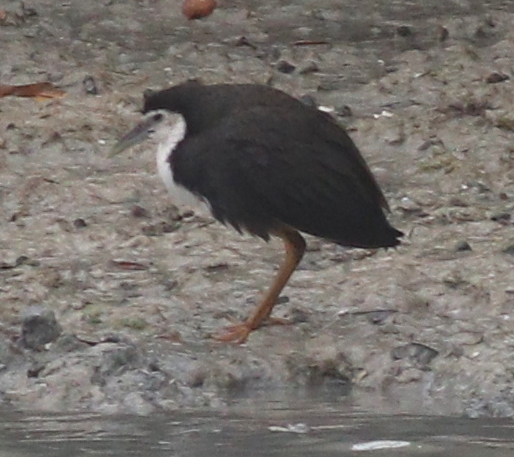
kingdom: Animalia
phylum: Chordata
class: Aves
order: Gruiformes
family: Rallidae
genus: Amaurornis
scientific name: Amaurornis phoenicurus
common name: White-breasted waterhen
